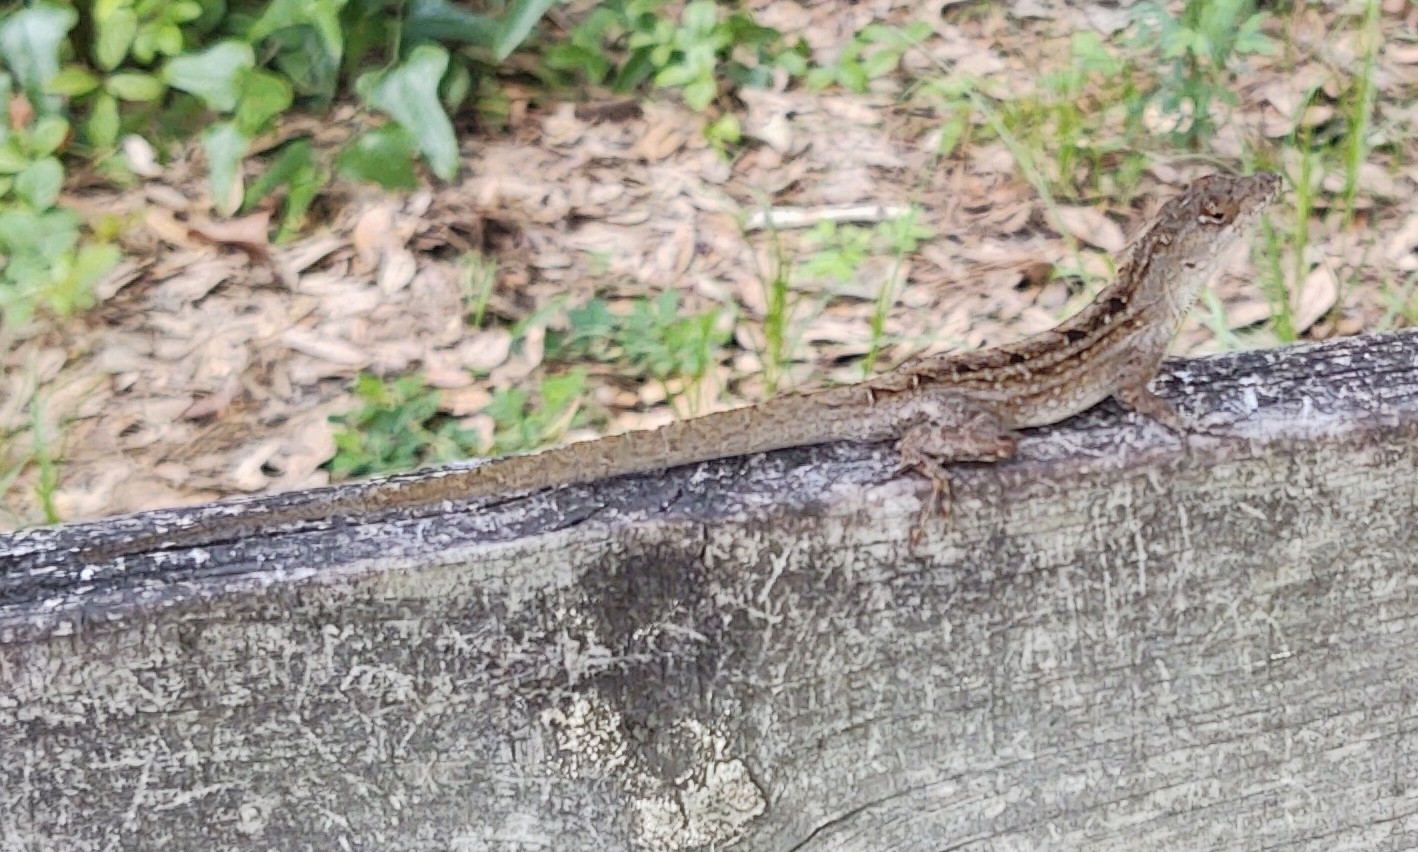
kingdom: Animalia
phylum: Chordata
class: Squamata
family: Dactyloidae
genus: Anolis
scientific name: Anolis sagrei
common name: Brown anole
